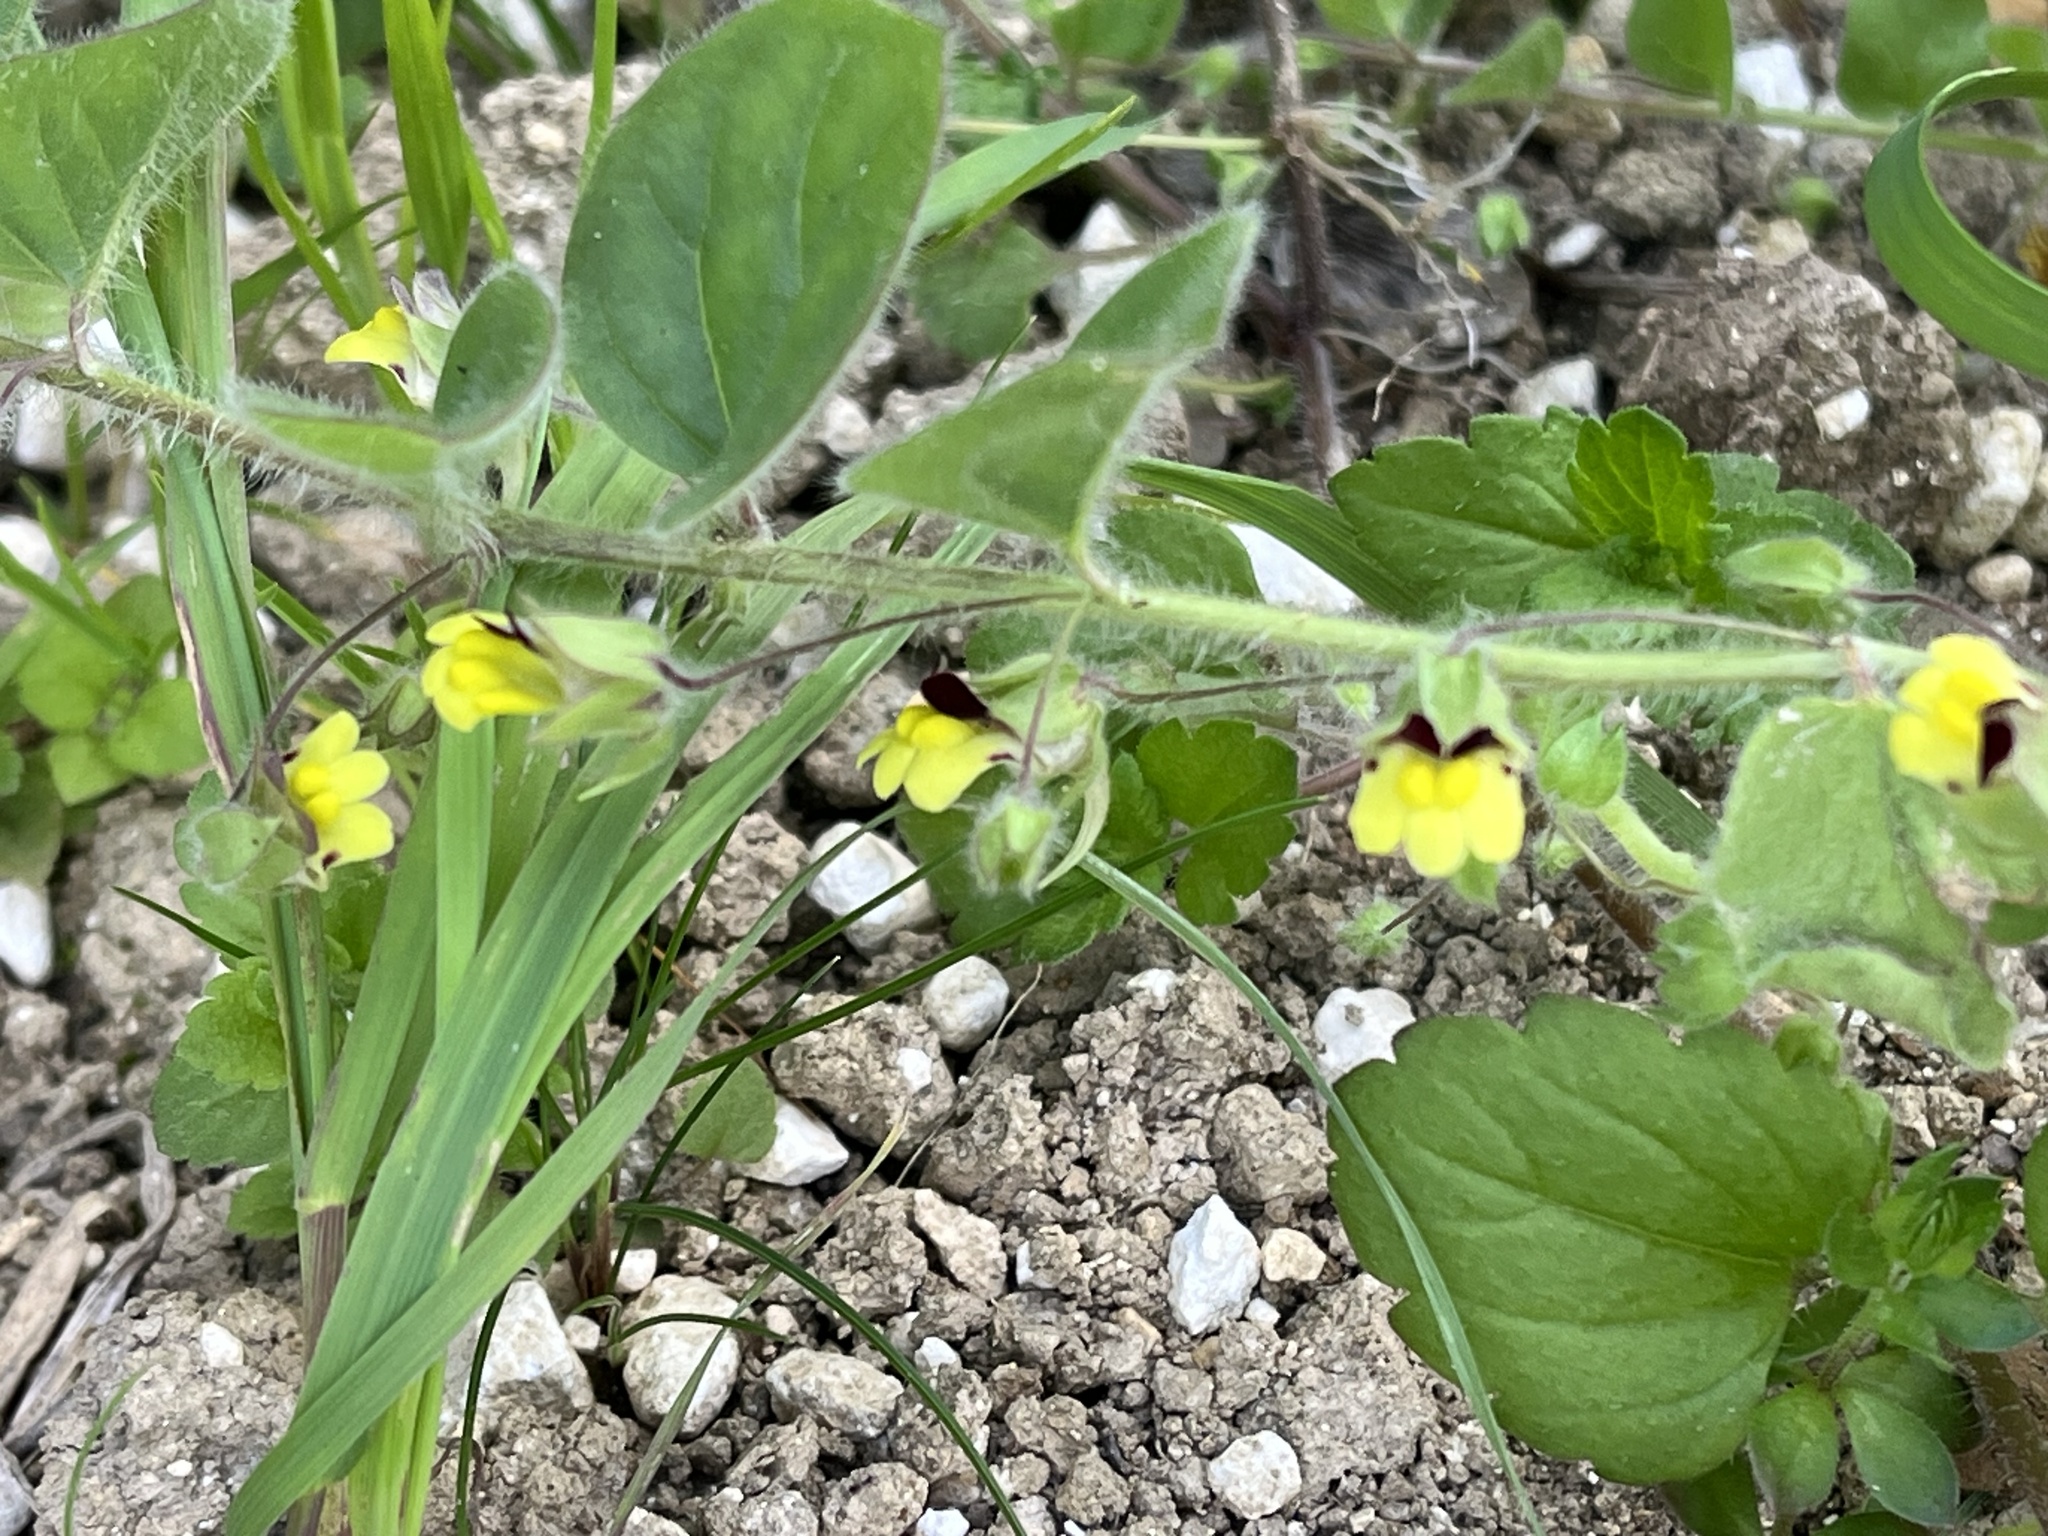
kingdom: Plantae
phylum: Tracheophyta
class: Magnoliopsida
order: Lamiales
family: Plantaginaceae
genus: Kickxia
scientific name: Kickxia spuria
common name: Round-leaved fluellen
